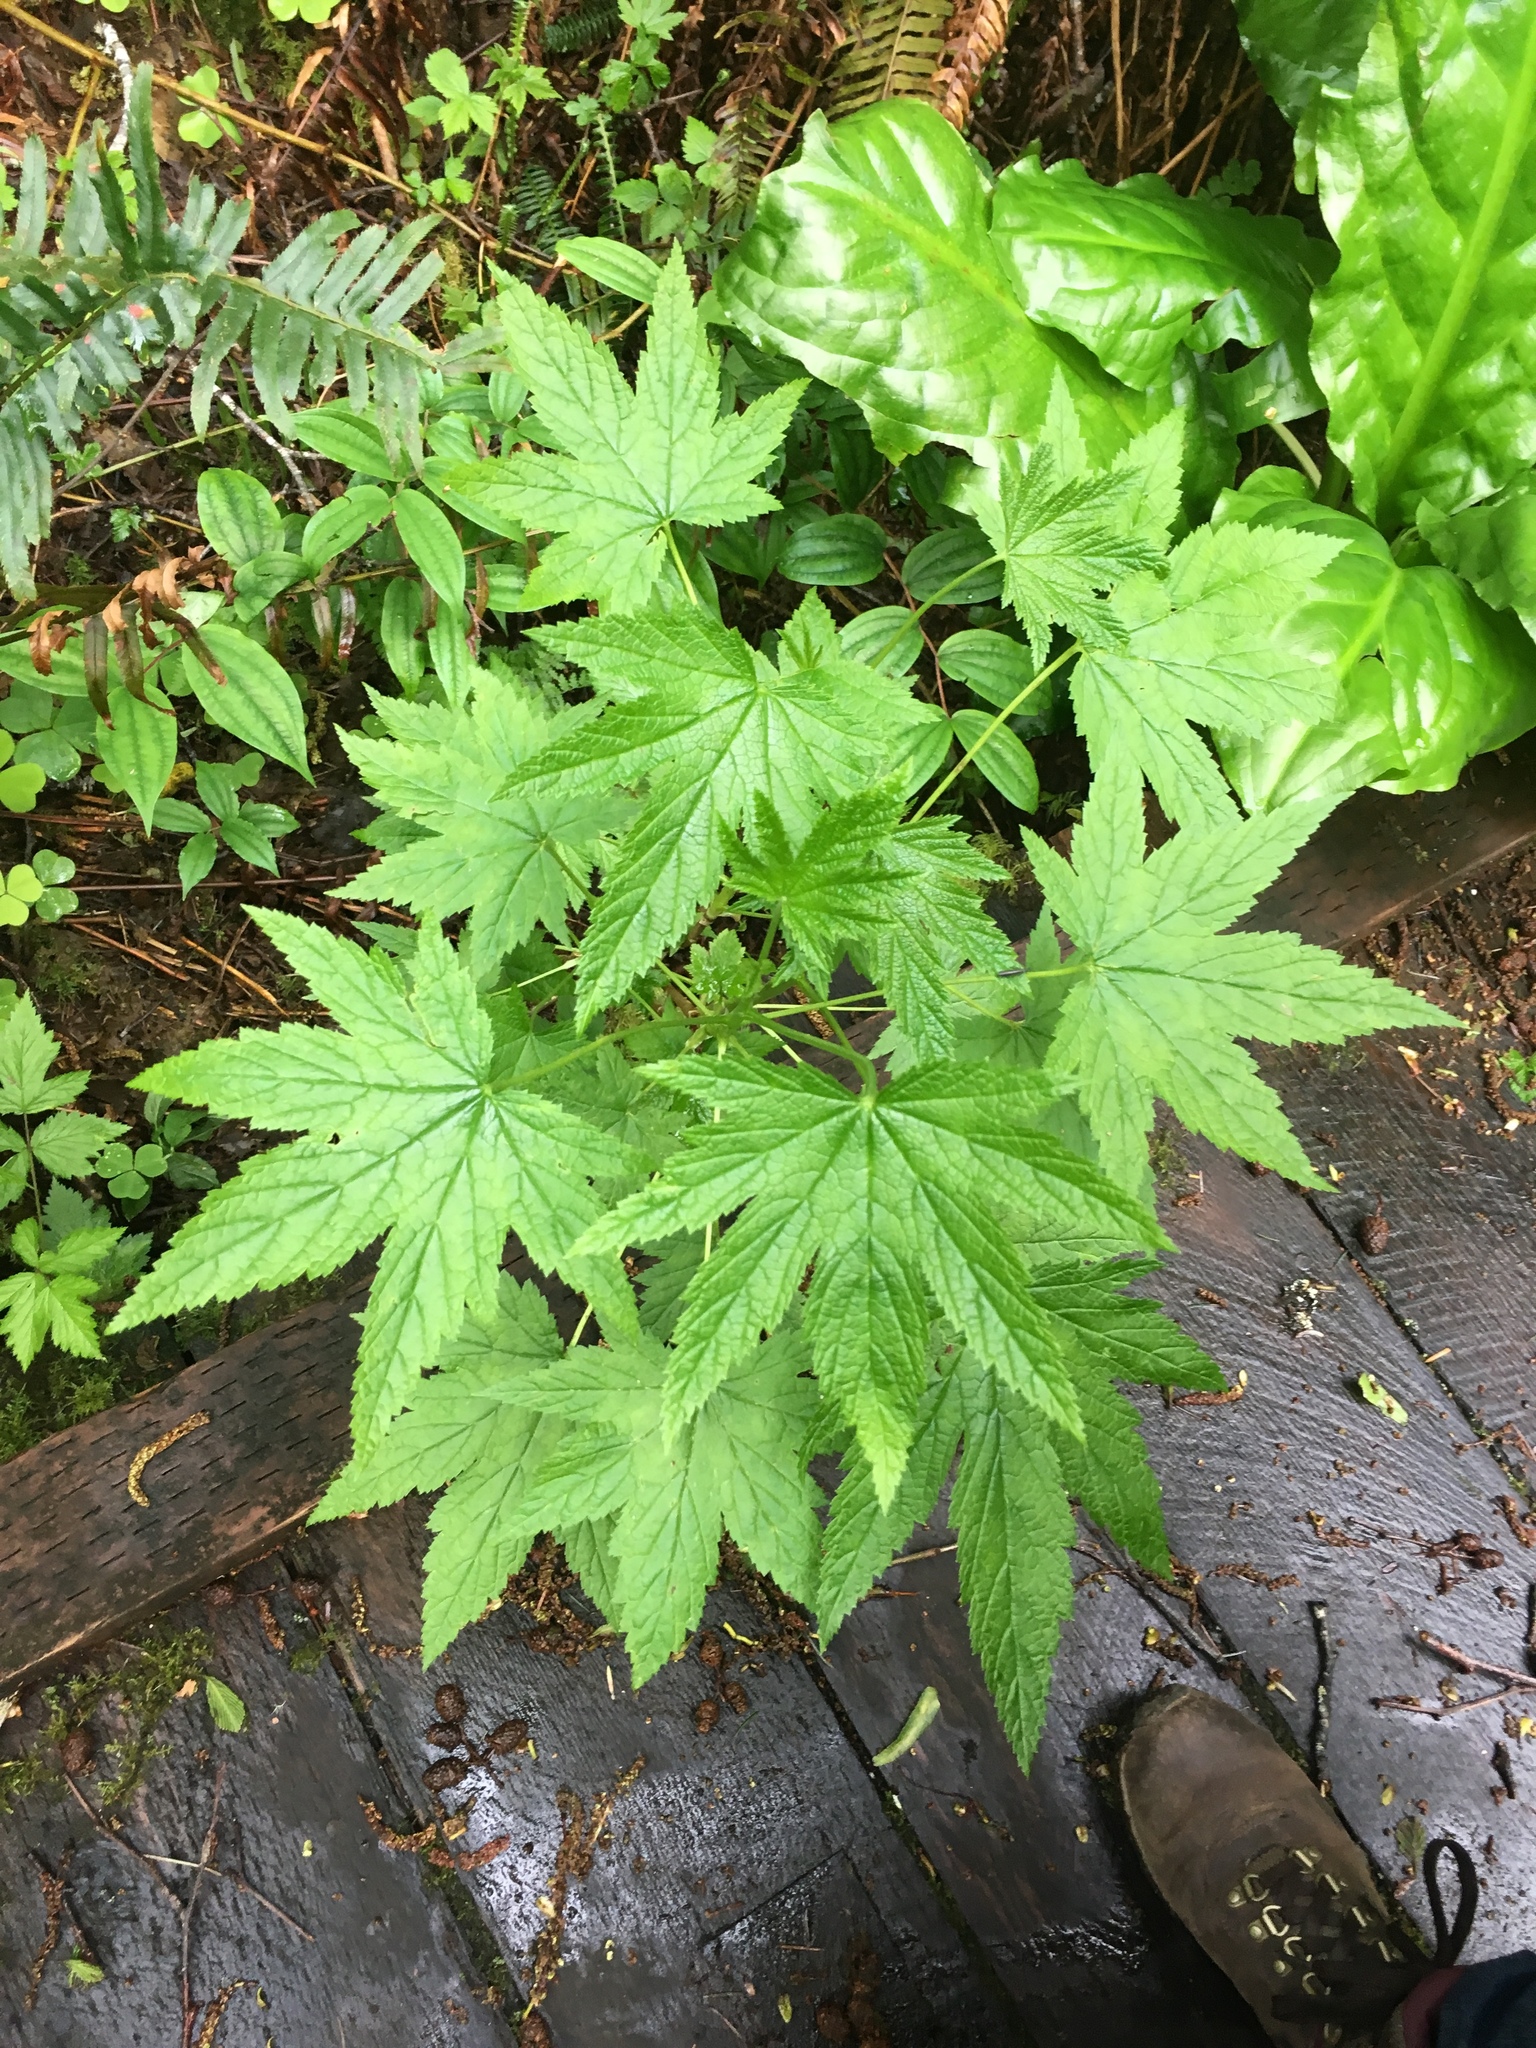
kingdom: Plantae
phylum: Tracheophyta
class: Magnoliopsida
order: Saxifragales
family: Grossulariaceae
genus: Ribes
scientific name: Ribes bracteosum
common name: California black currant
